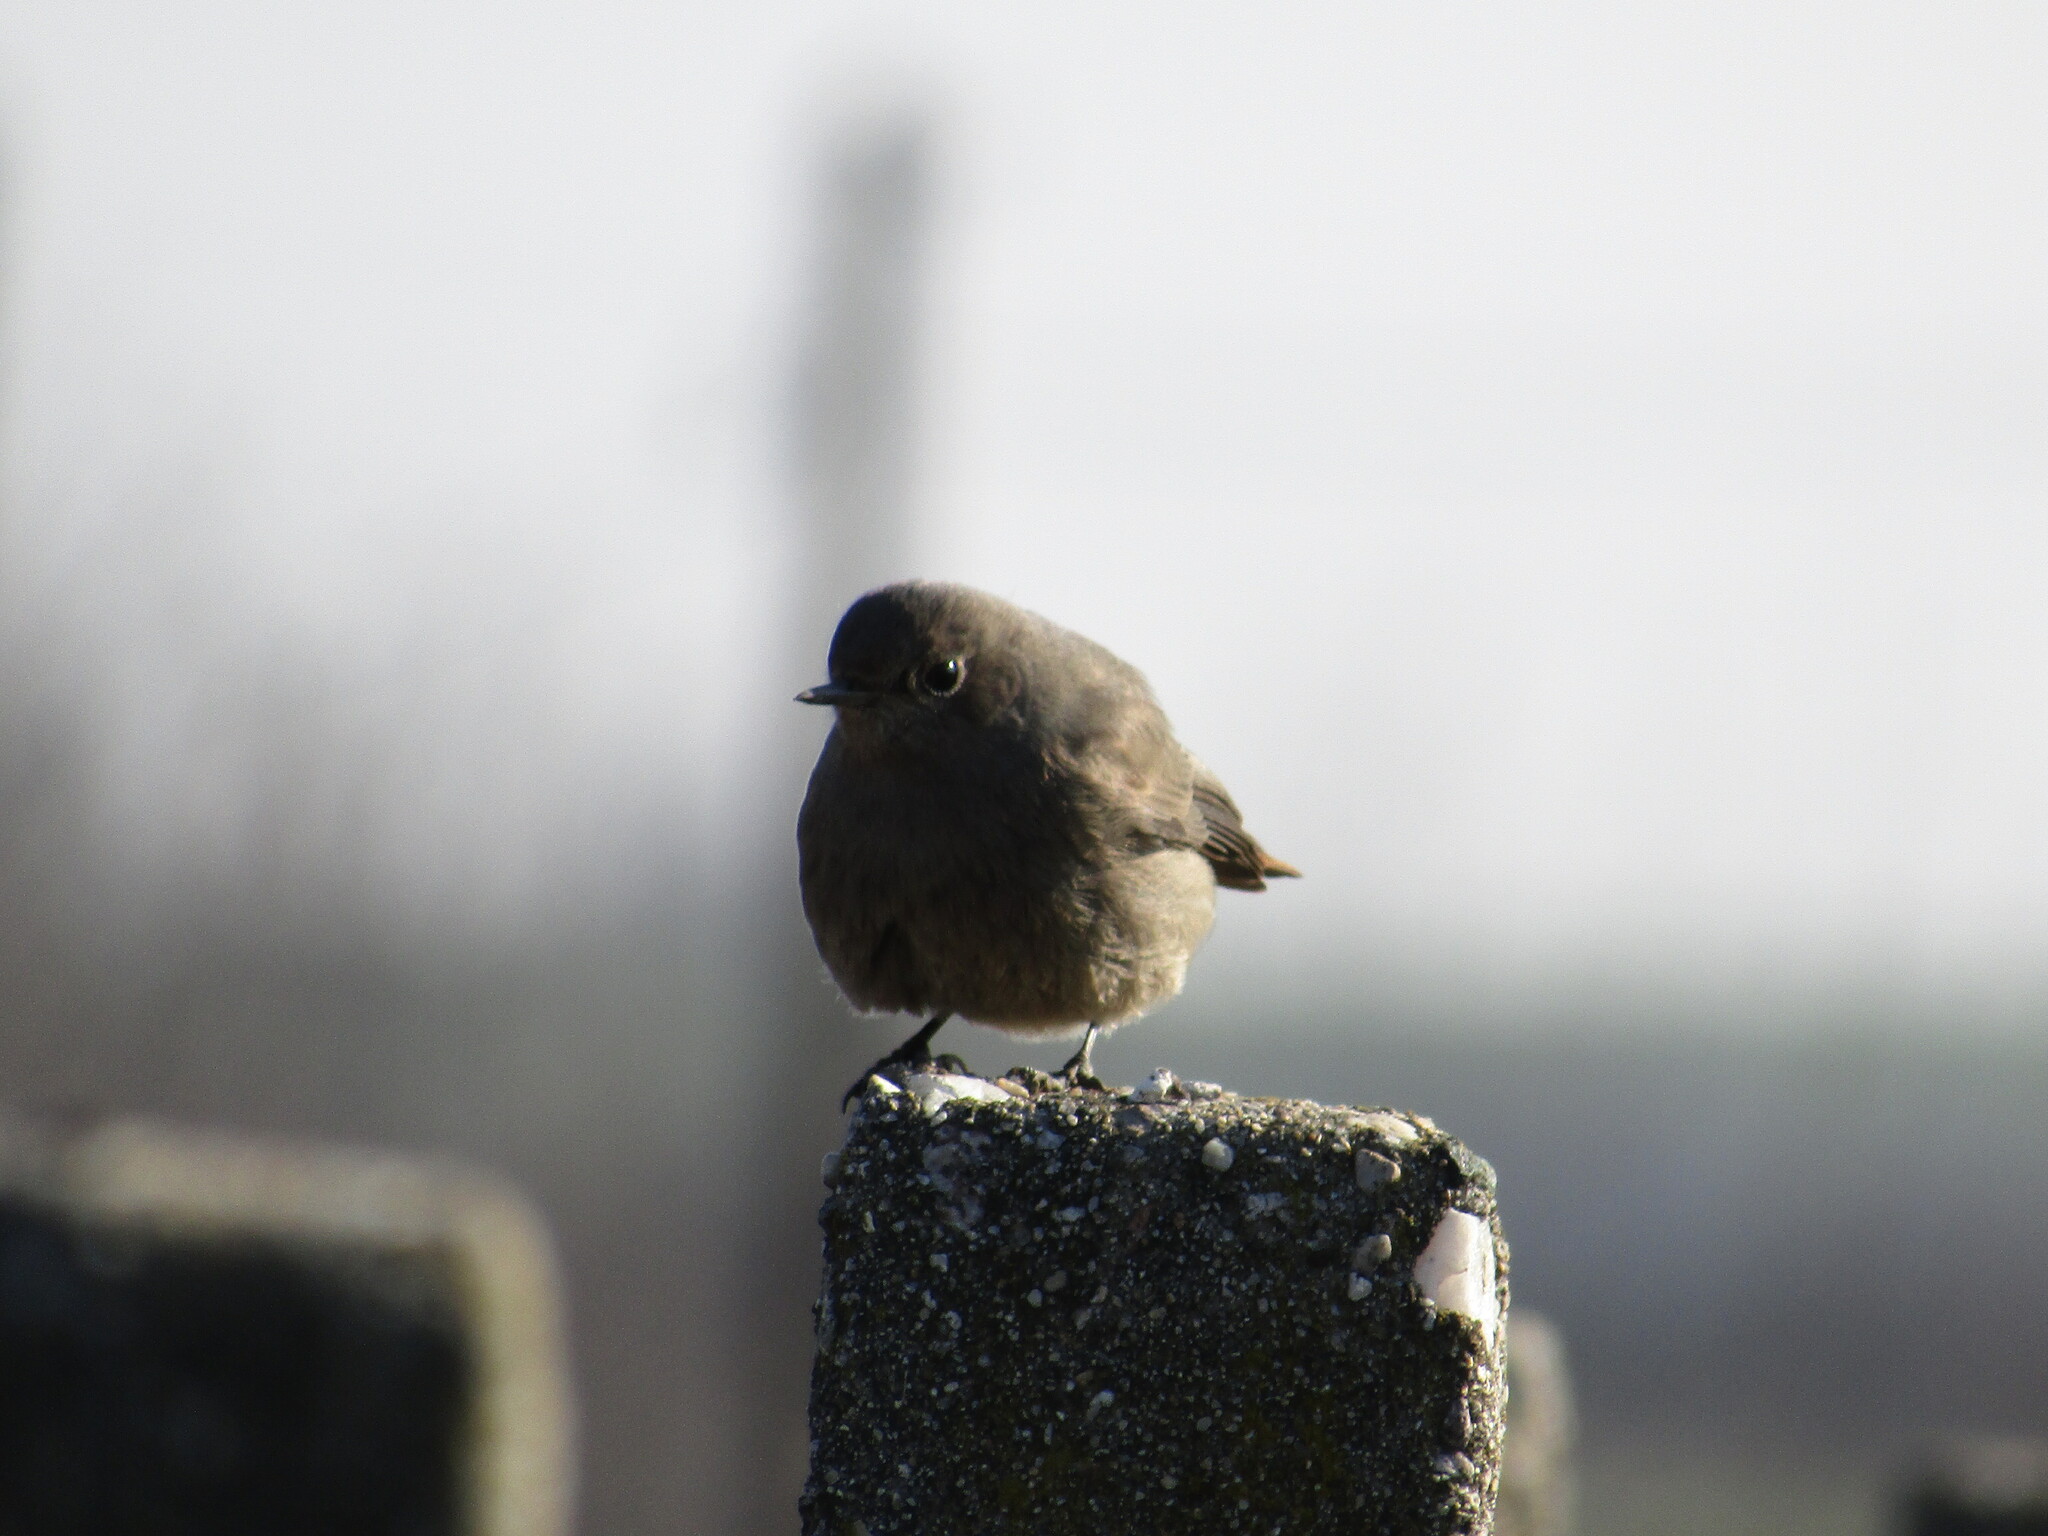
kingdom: Animalia
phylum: Chordata
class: Aves
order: Passeriformes
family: Muscicapidae
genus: Phoenicurus
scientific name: Phoenicurus ochruros
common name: Black redstart
